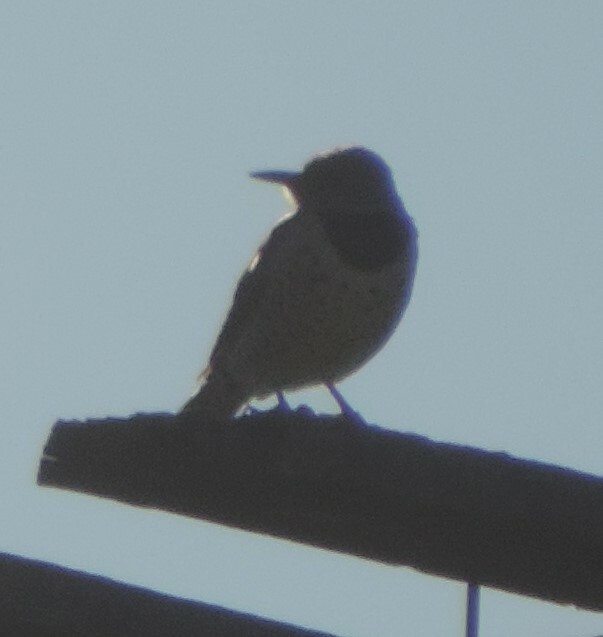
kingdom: Animalia
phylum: Chordata
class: Aves
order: Piciformes
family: Picidae
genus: Colaptes
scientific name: Colaptes auratus
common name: Northern flicker
